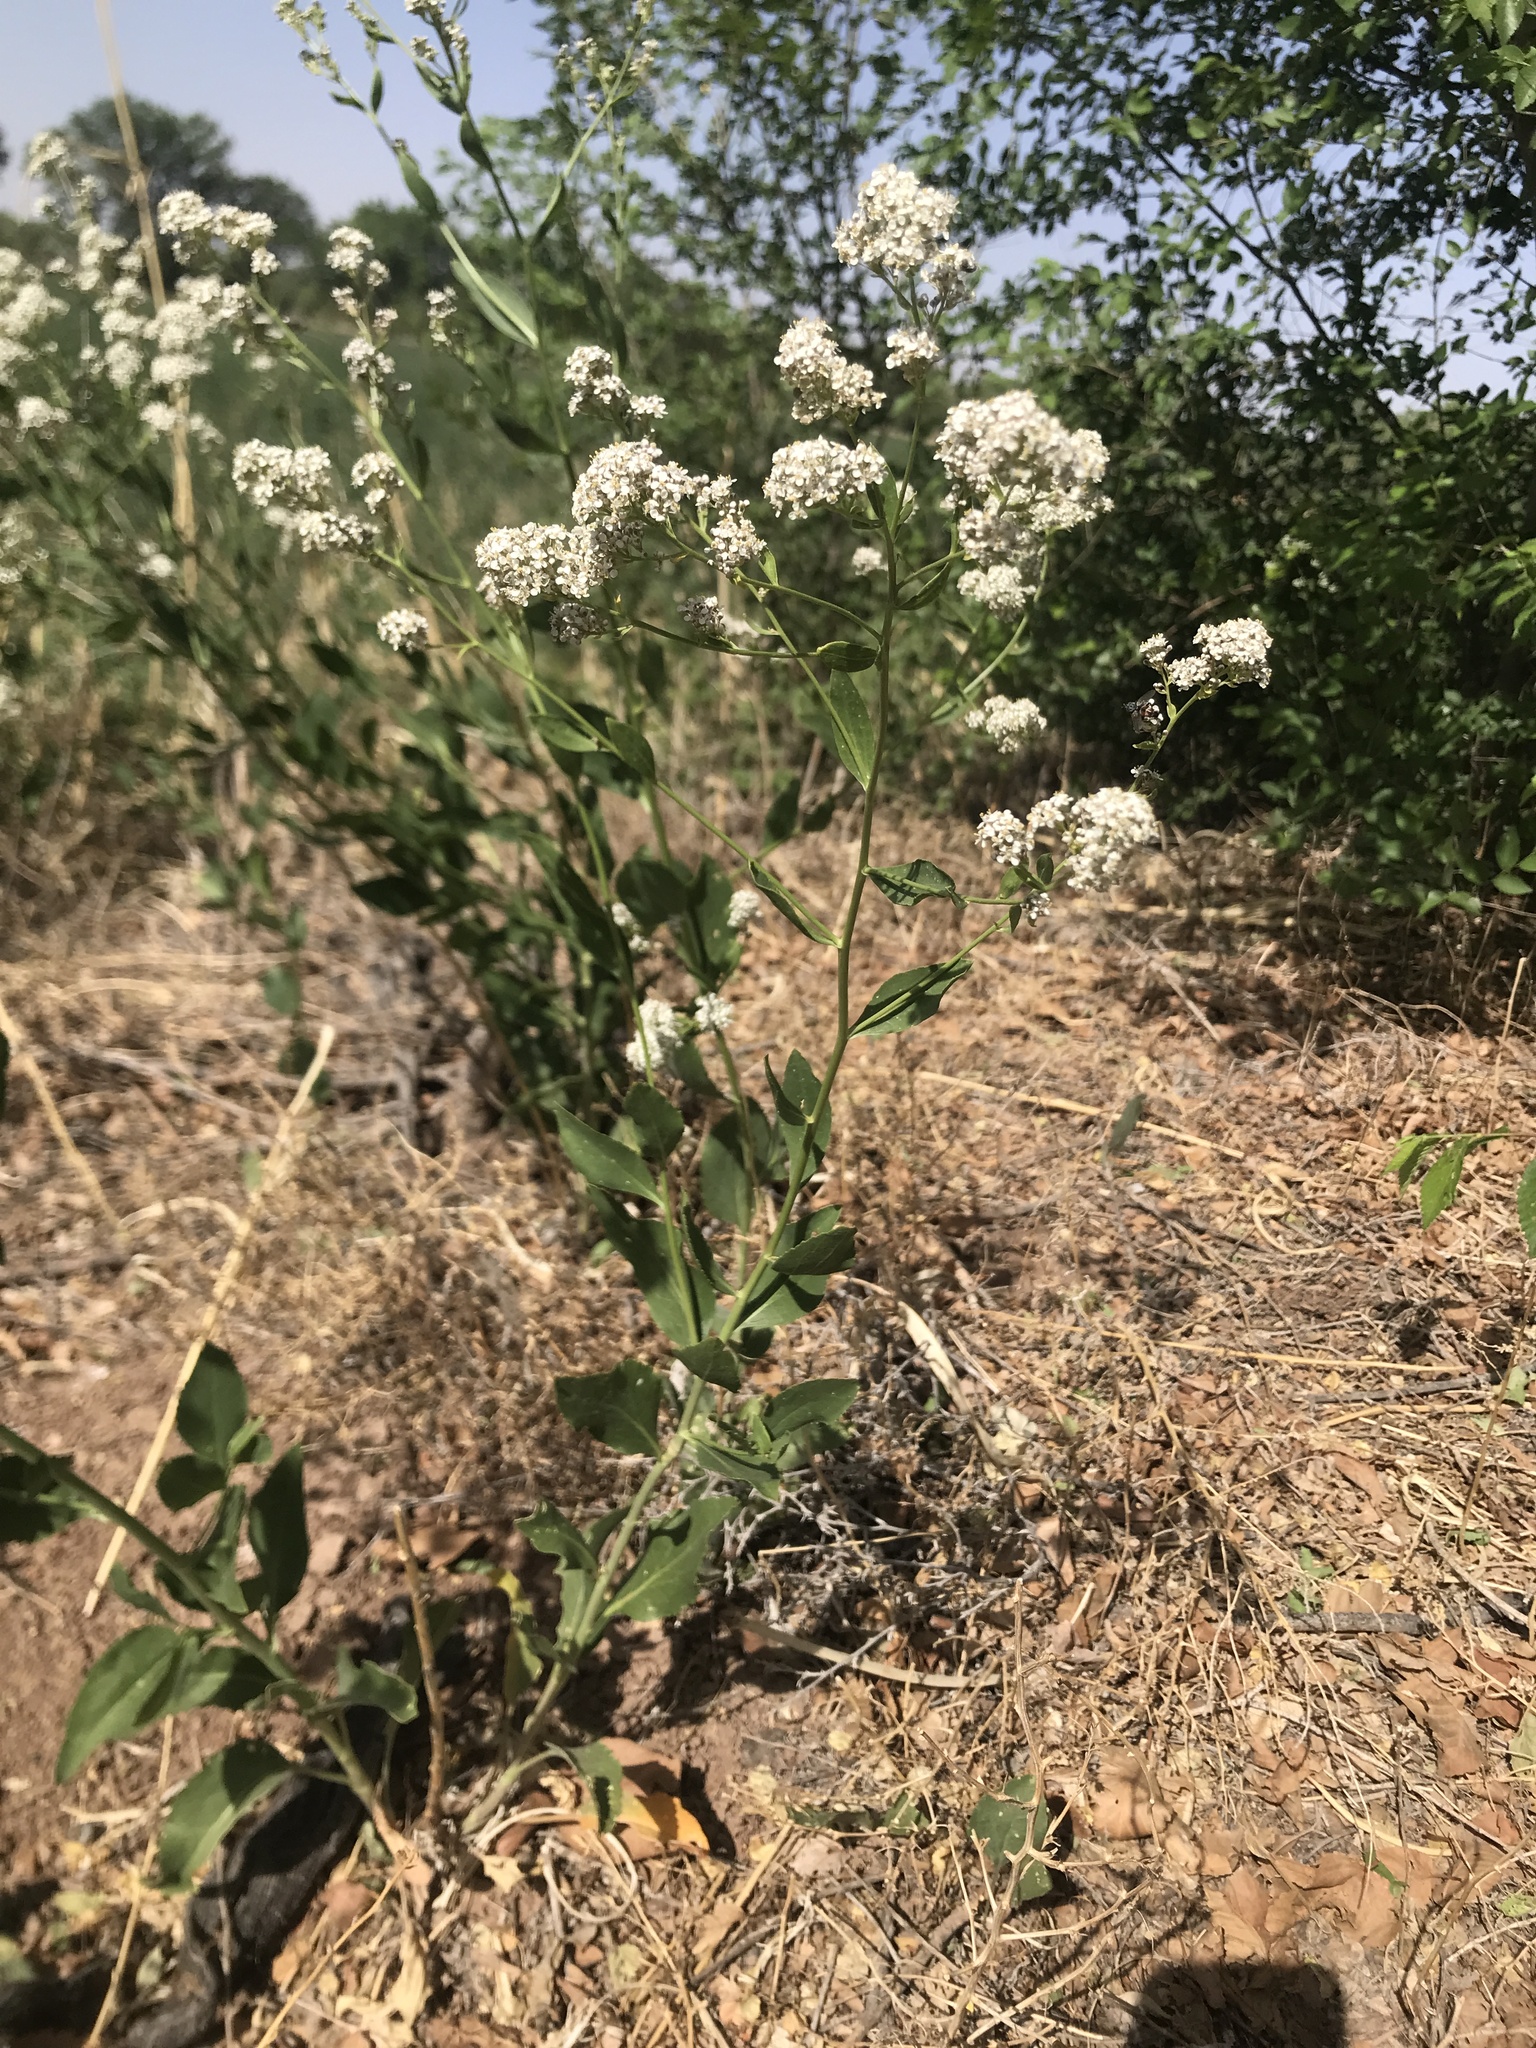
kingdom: Plantae
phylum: Tracheophyta
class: Magnoliopsida
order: Brassicales
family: Brassicaceae
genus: Lepidium
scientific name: Lepidium latifolium
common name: Dittander
